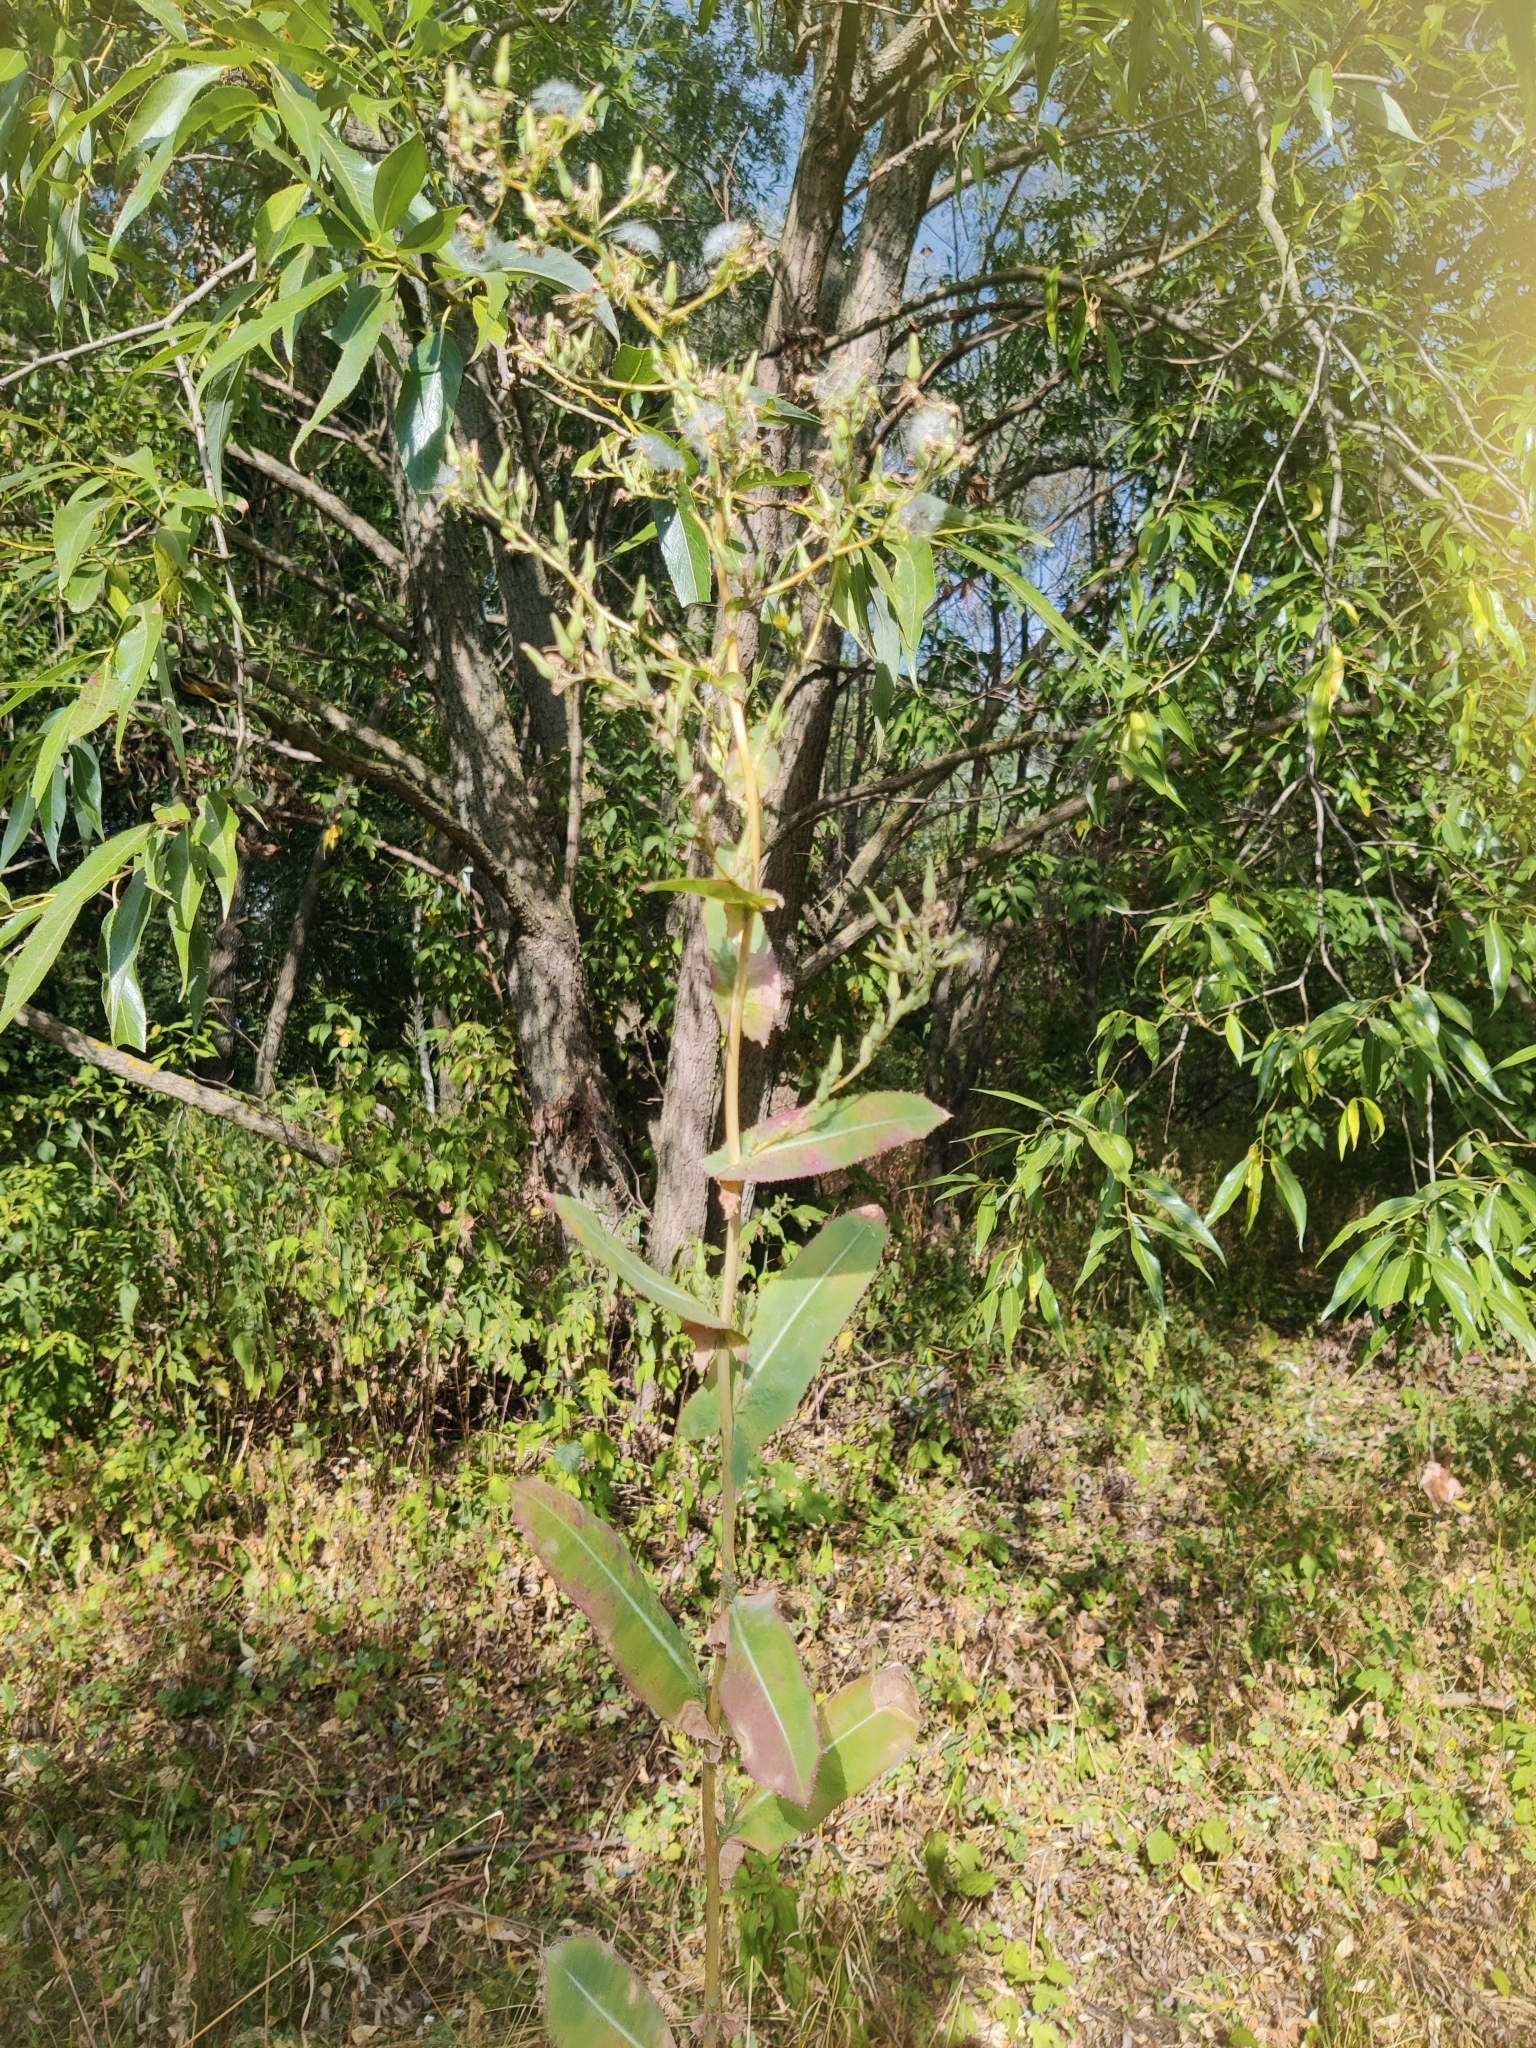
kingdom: Plantae
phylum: Tracheophyta
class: Magnoliopsida
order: Asterales
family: Asteraceae
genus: Lactuca
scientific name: Lactuca serriola
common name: Prickly lettuce
